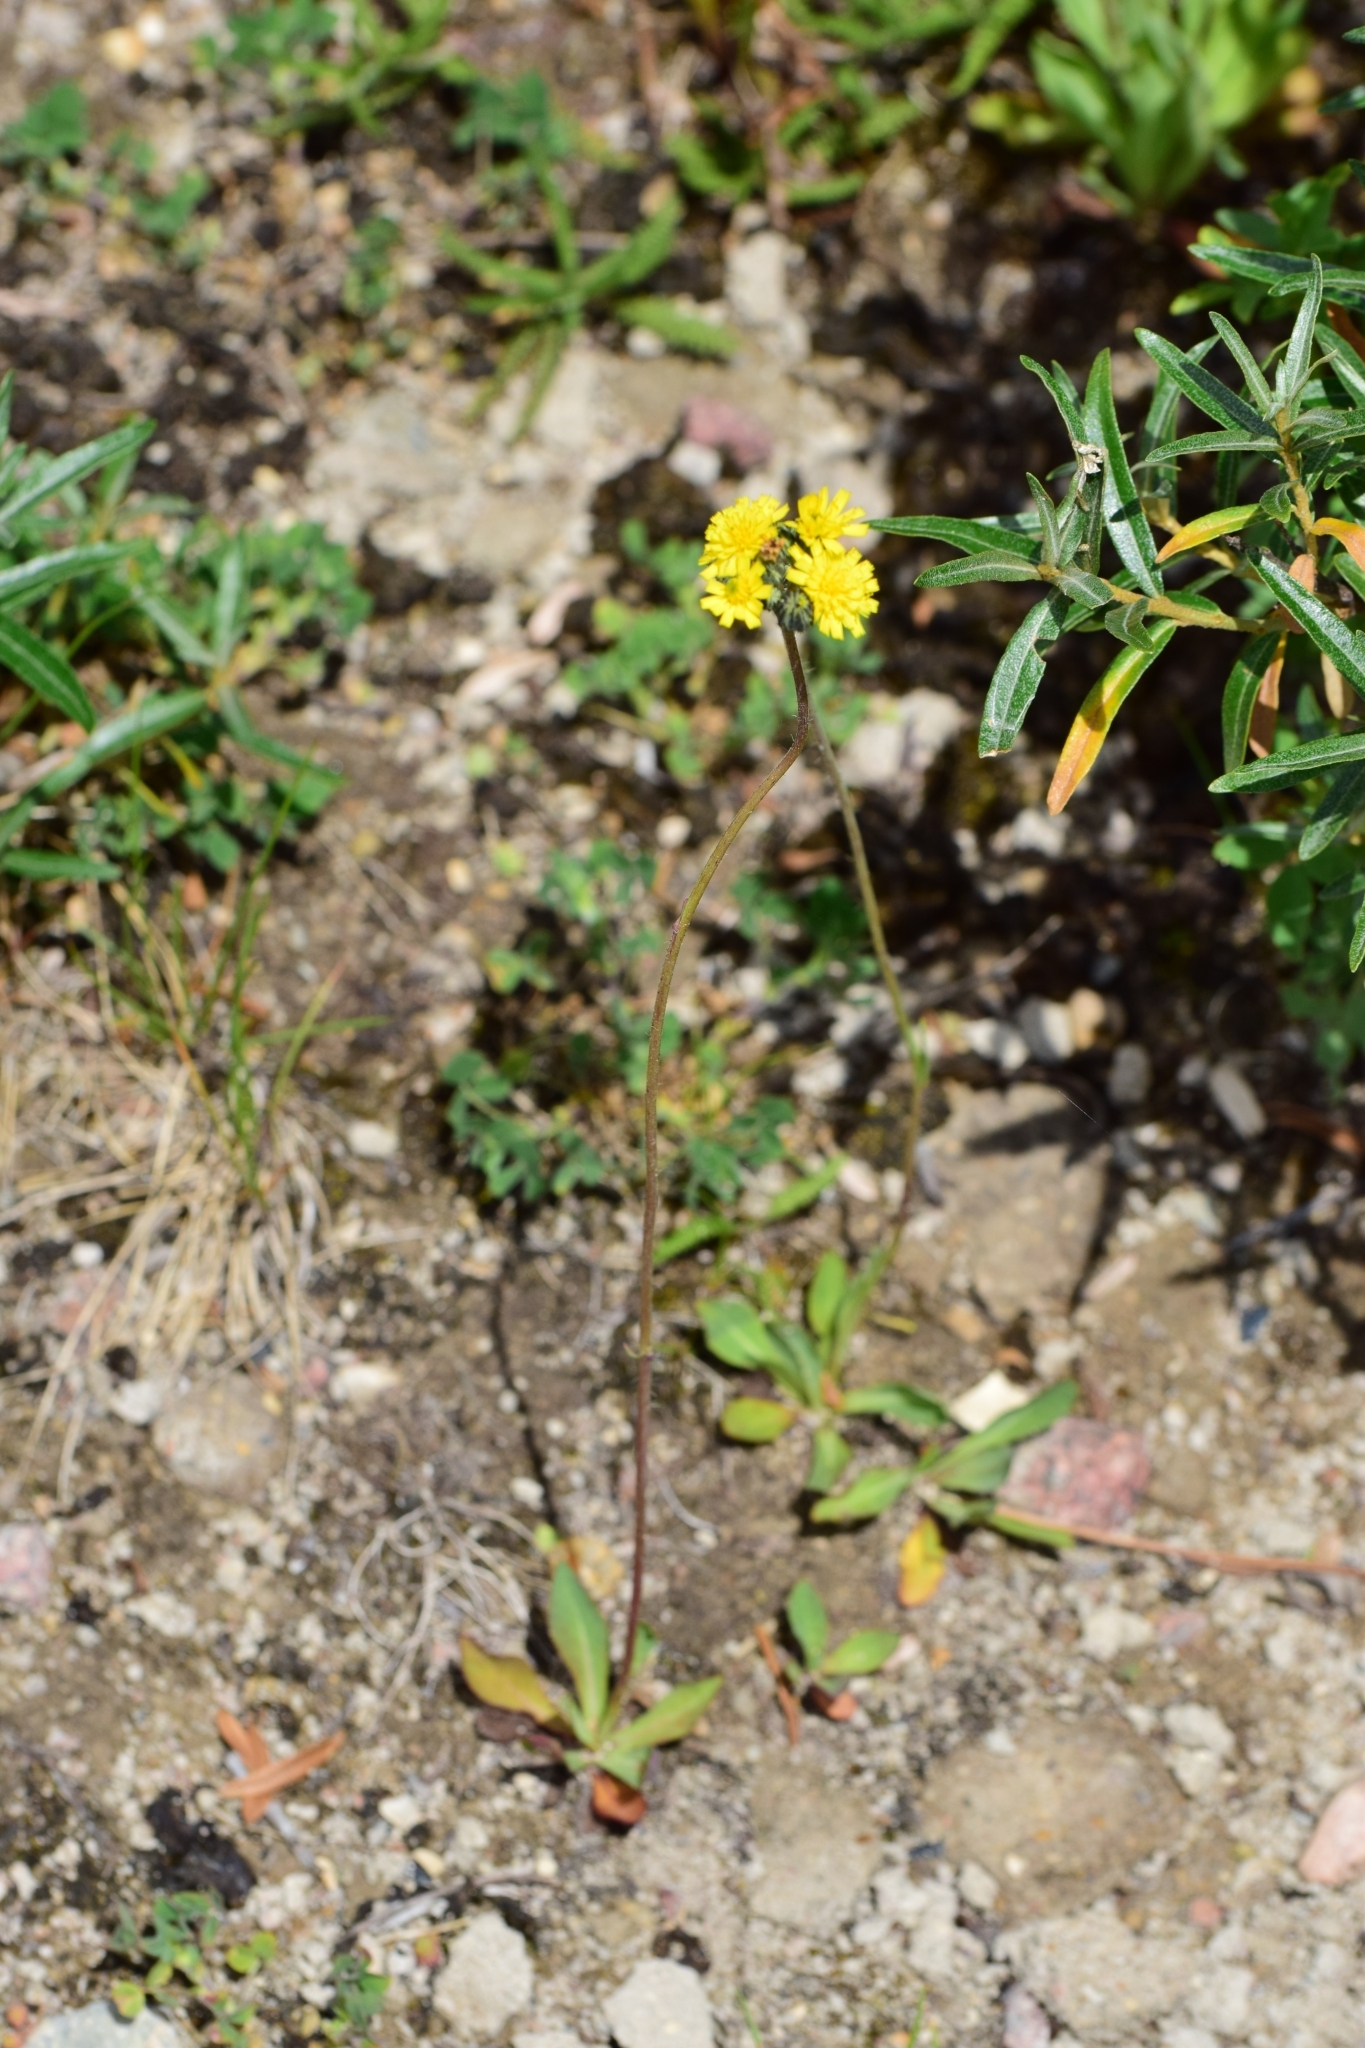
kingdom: Plantae
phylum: Tracheophyta
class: Magnoliopsida
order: Asterales
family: Asteraceae
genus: Pilosella
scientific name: Pilosella
